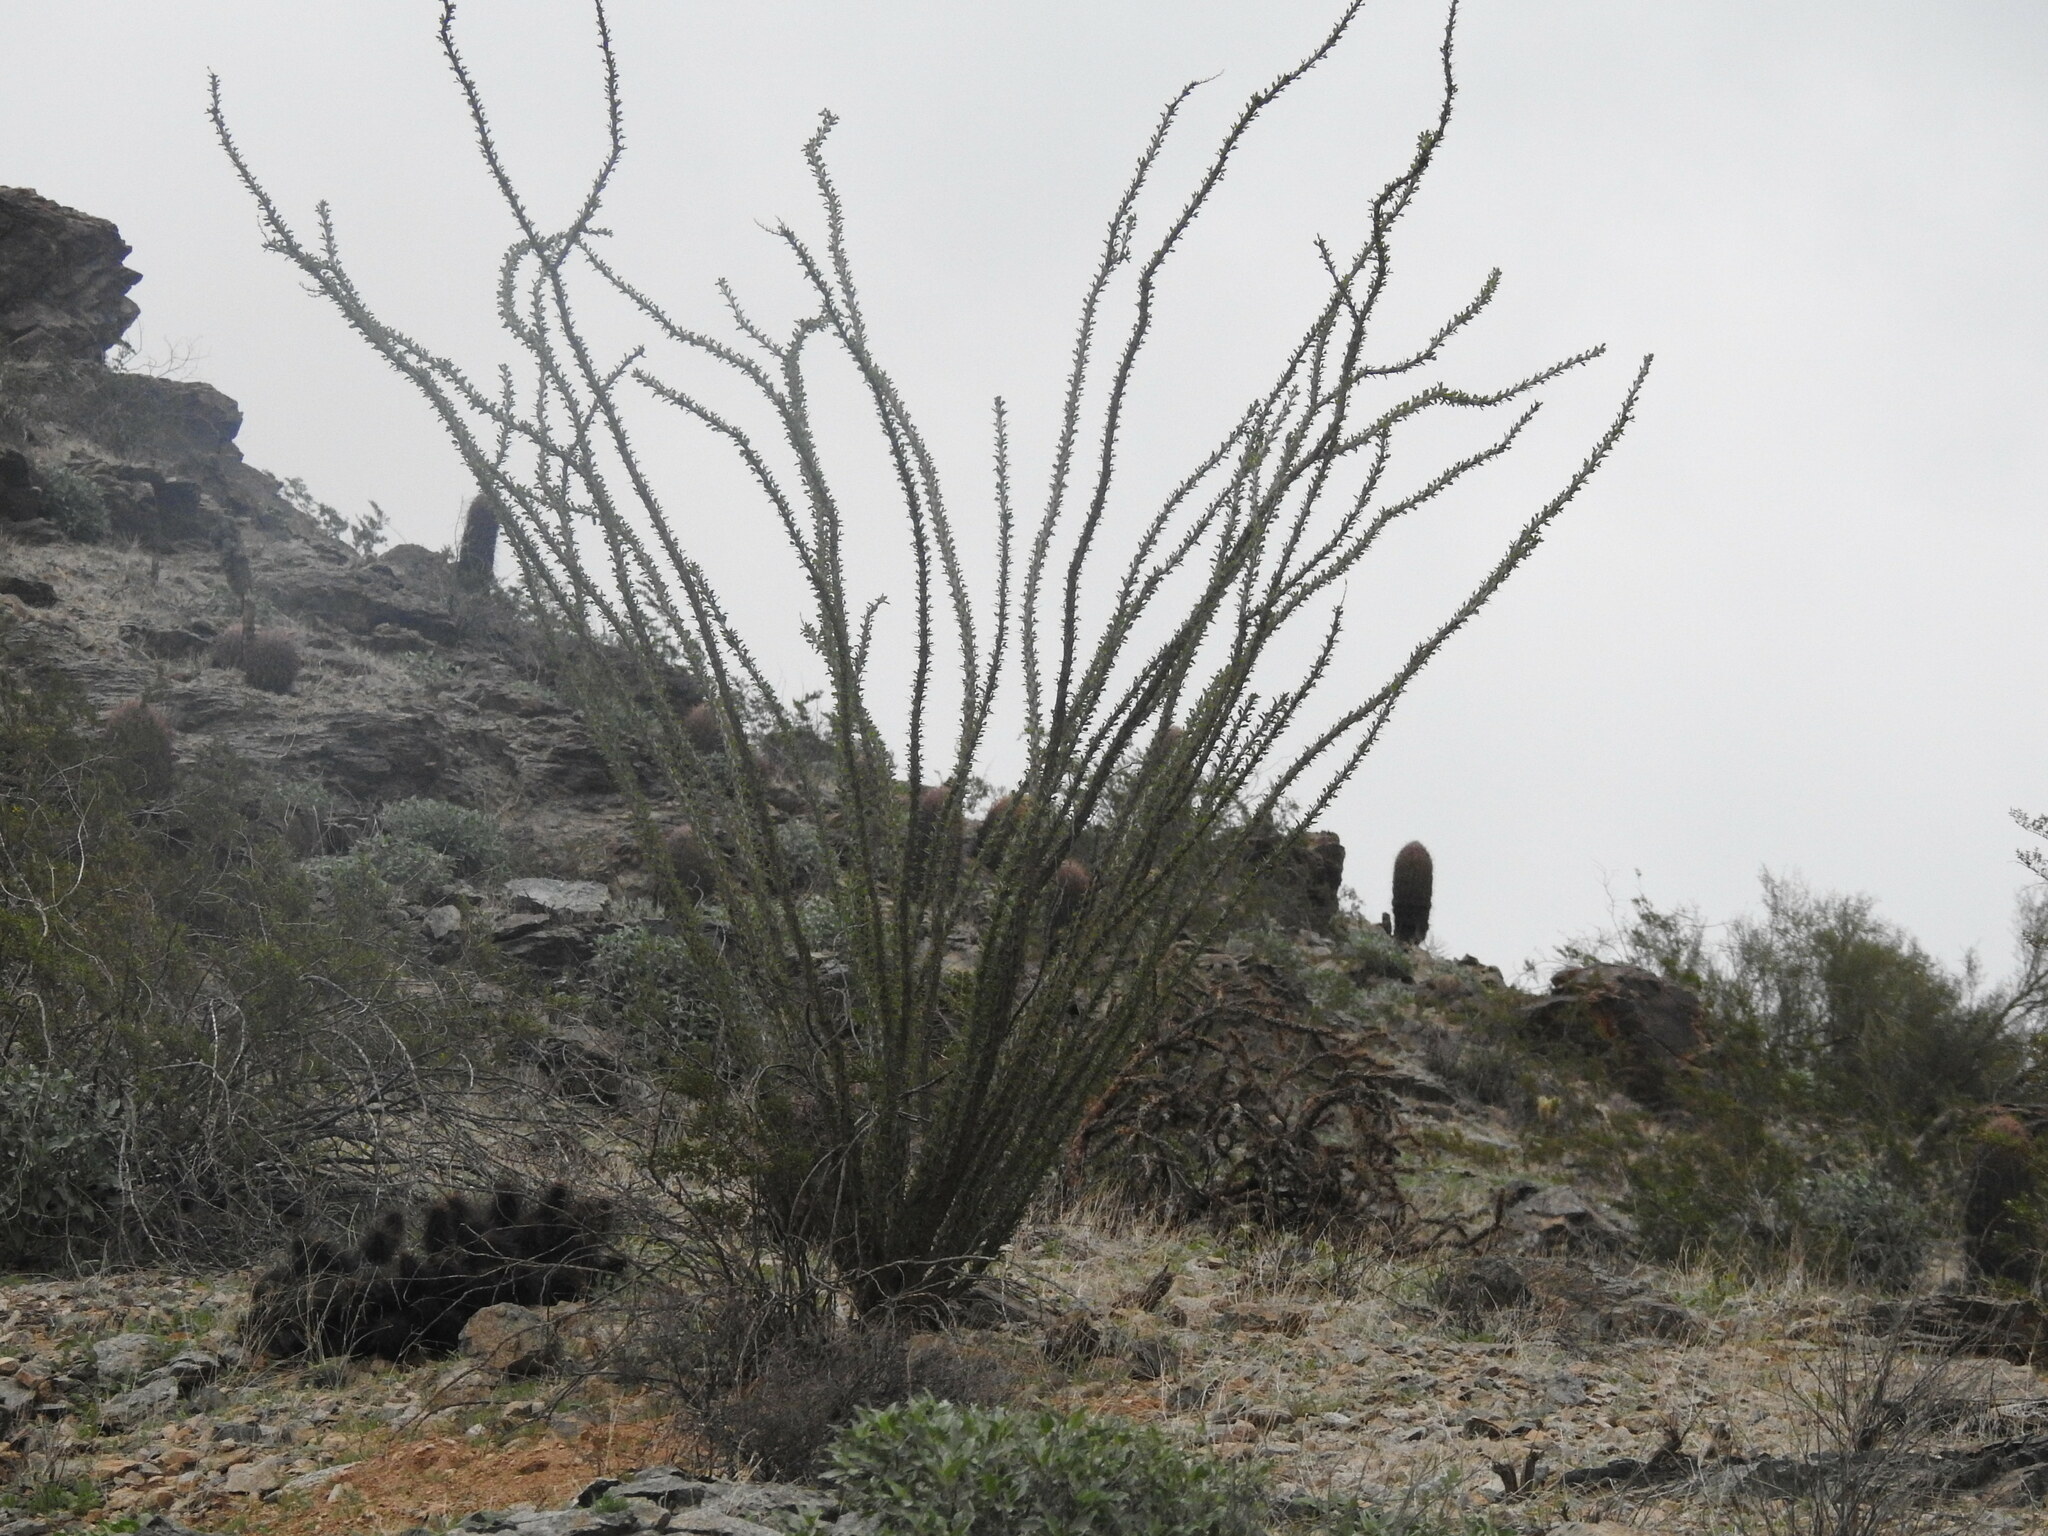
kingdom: Plantae
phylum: Tracheophyta
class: Magnoliopsida
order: Ericales
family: Fouquieriaceae
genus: Fouquieria
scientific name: Fouquieria splendens
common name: Vine-cactus
